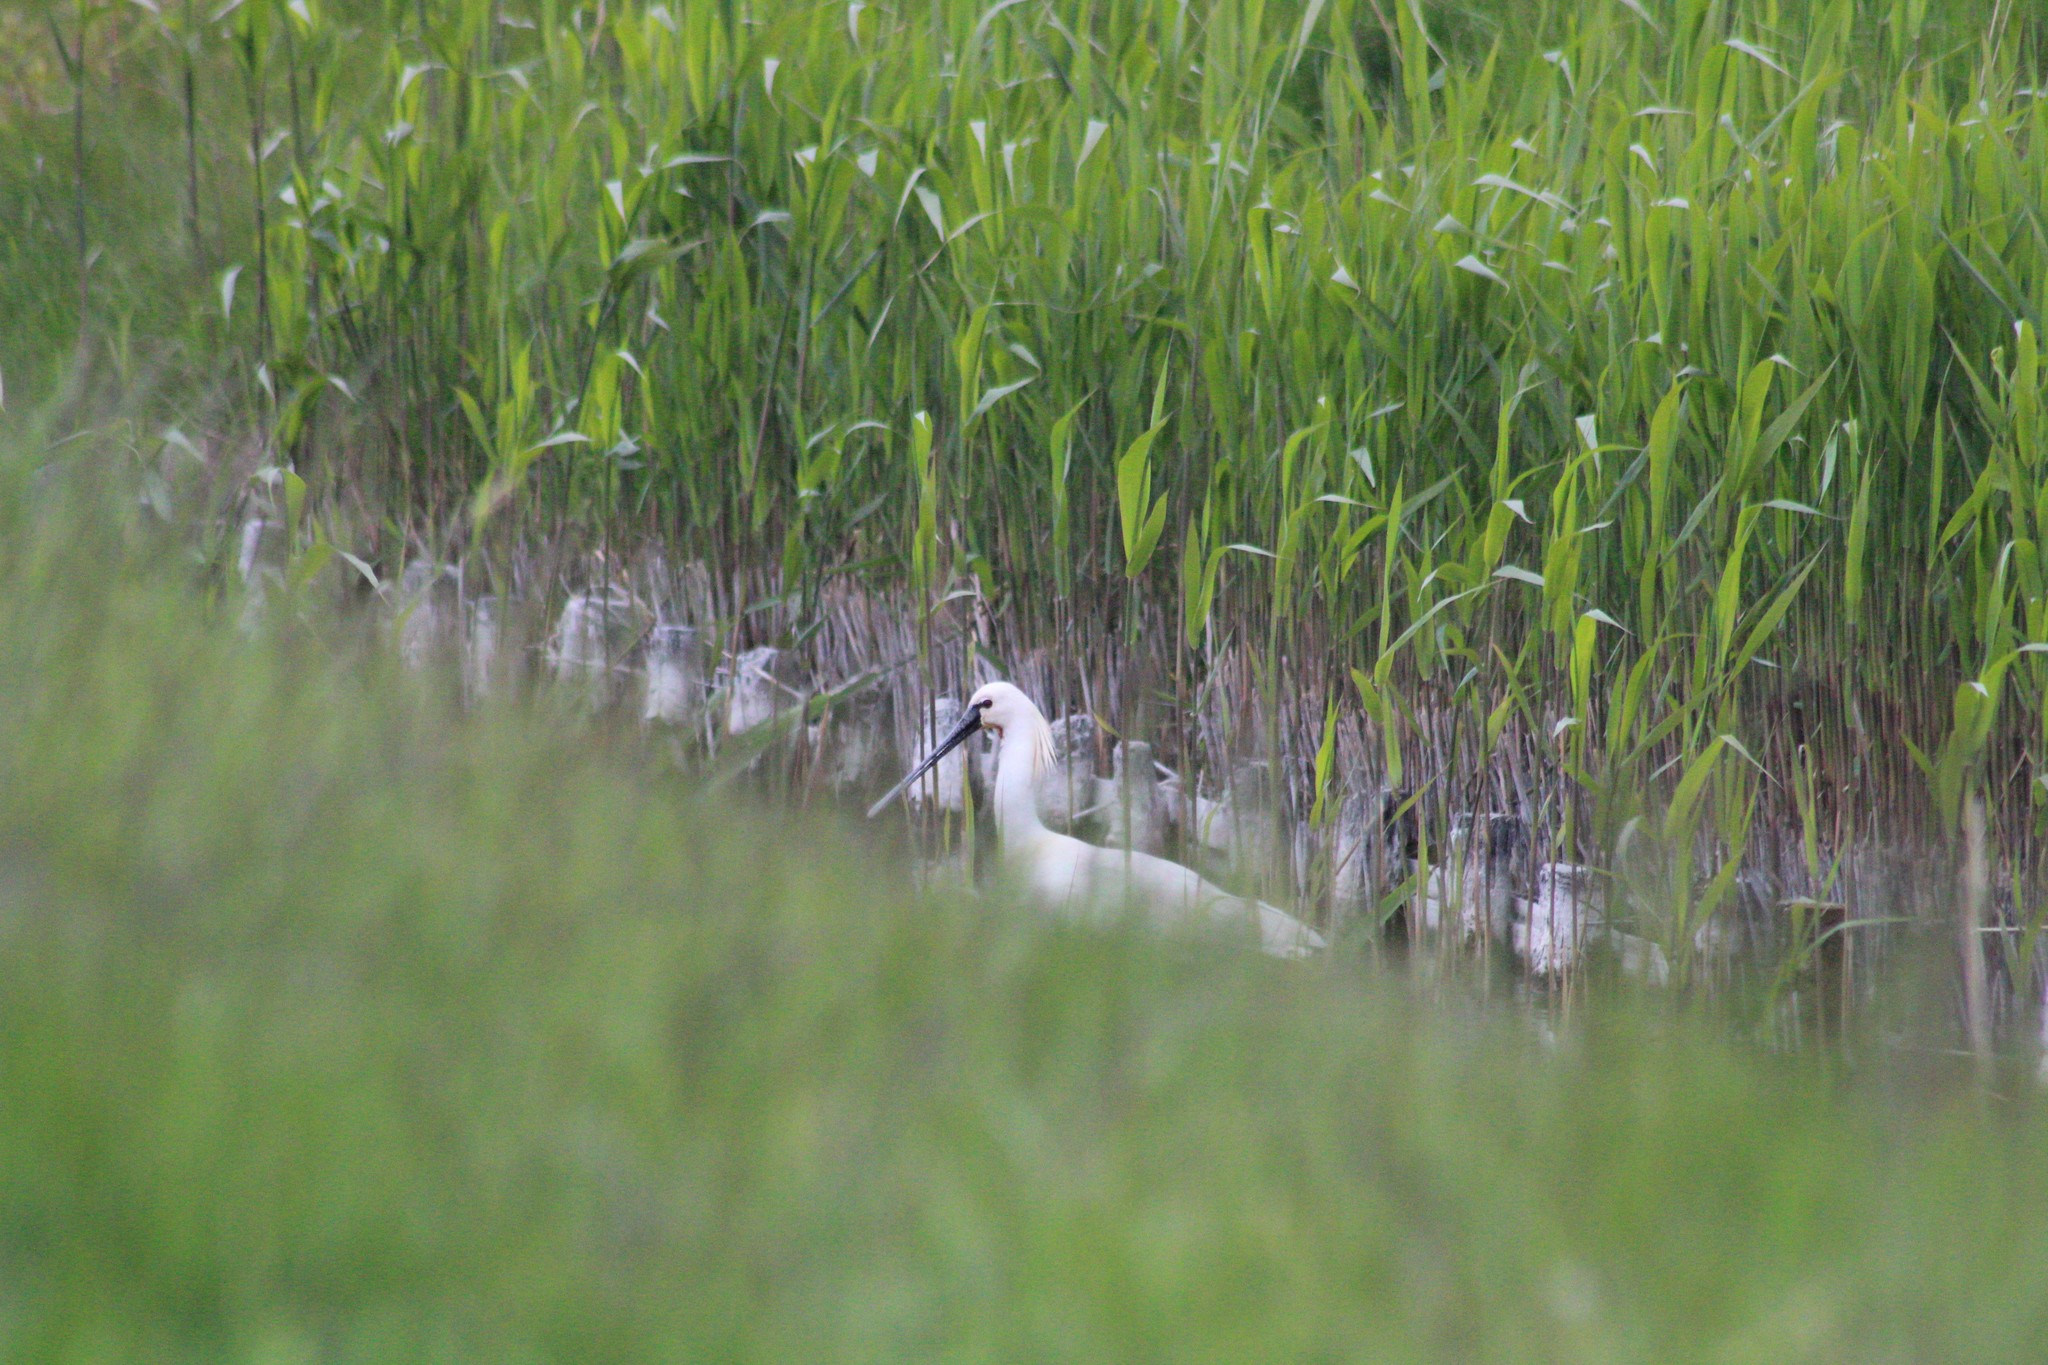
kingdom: Animalia
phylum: Chordata
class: Aves
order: Pelecaniformes
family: Threskiornithidae
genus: Platalea
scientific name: Platalea leucorodia
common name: Eurasian spoonbill
